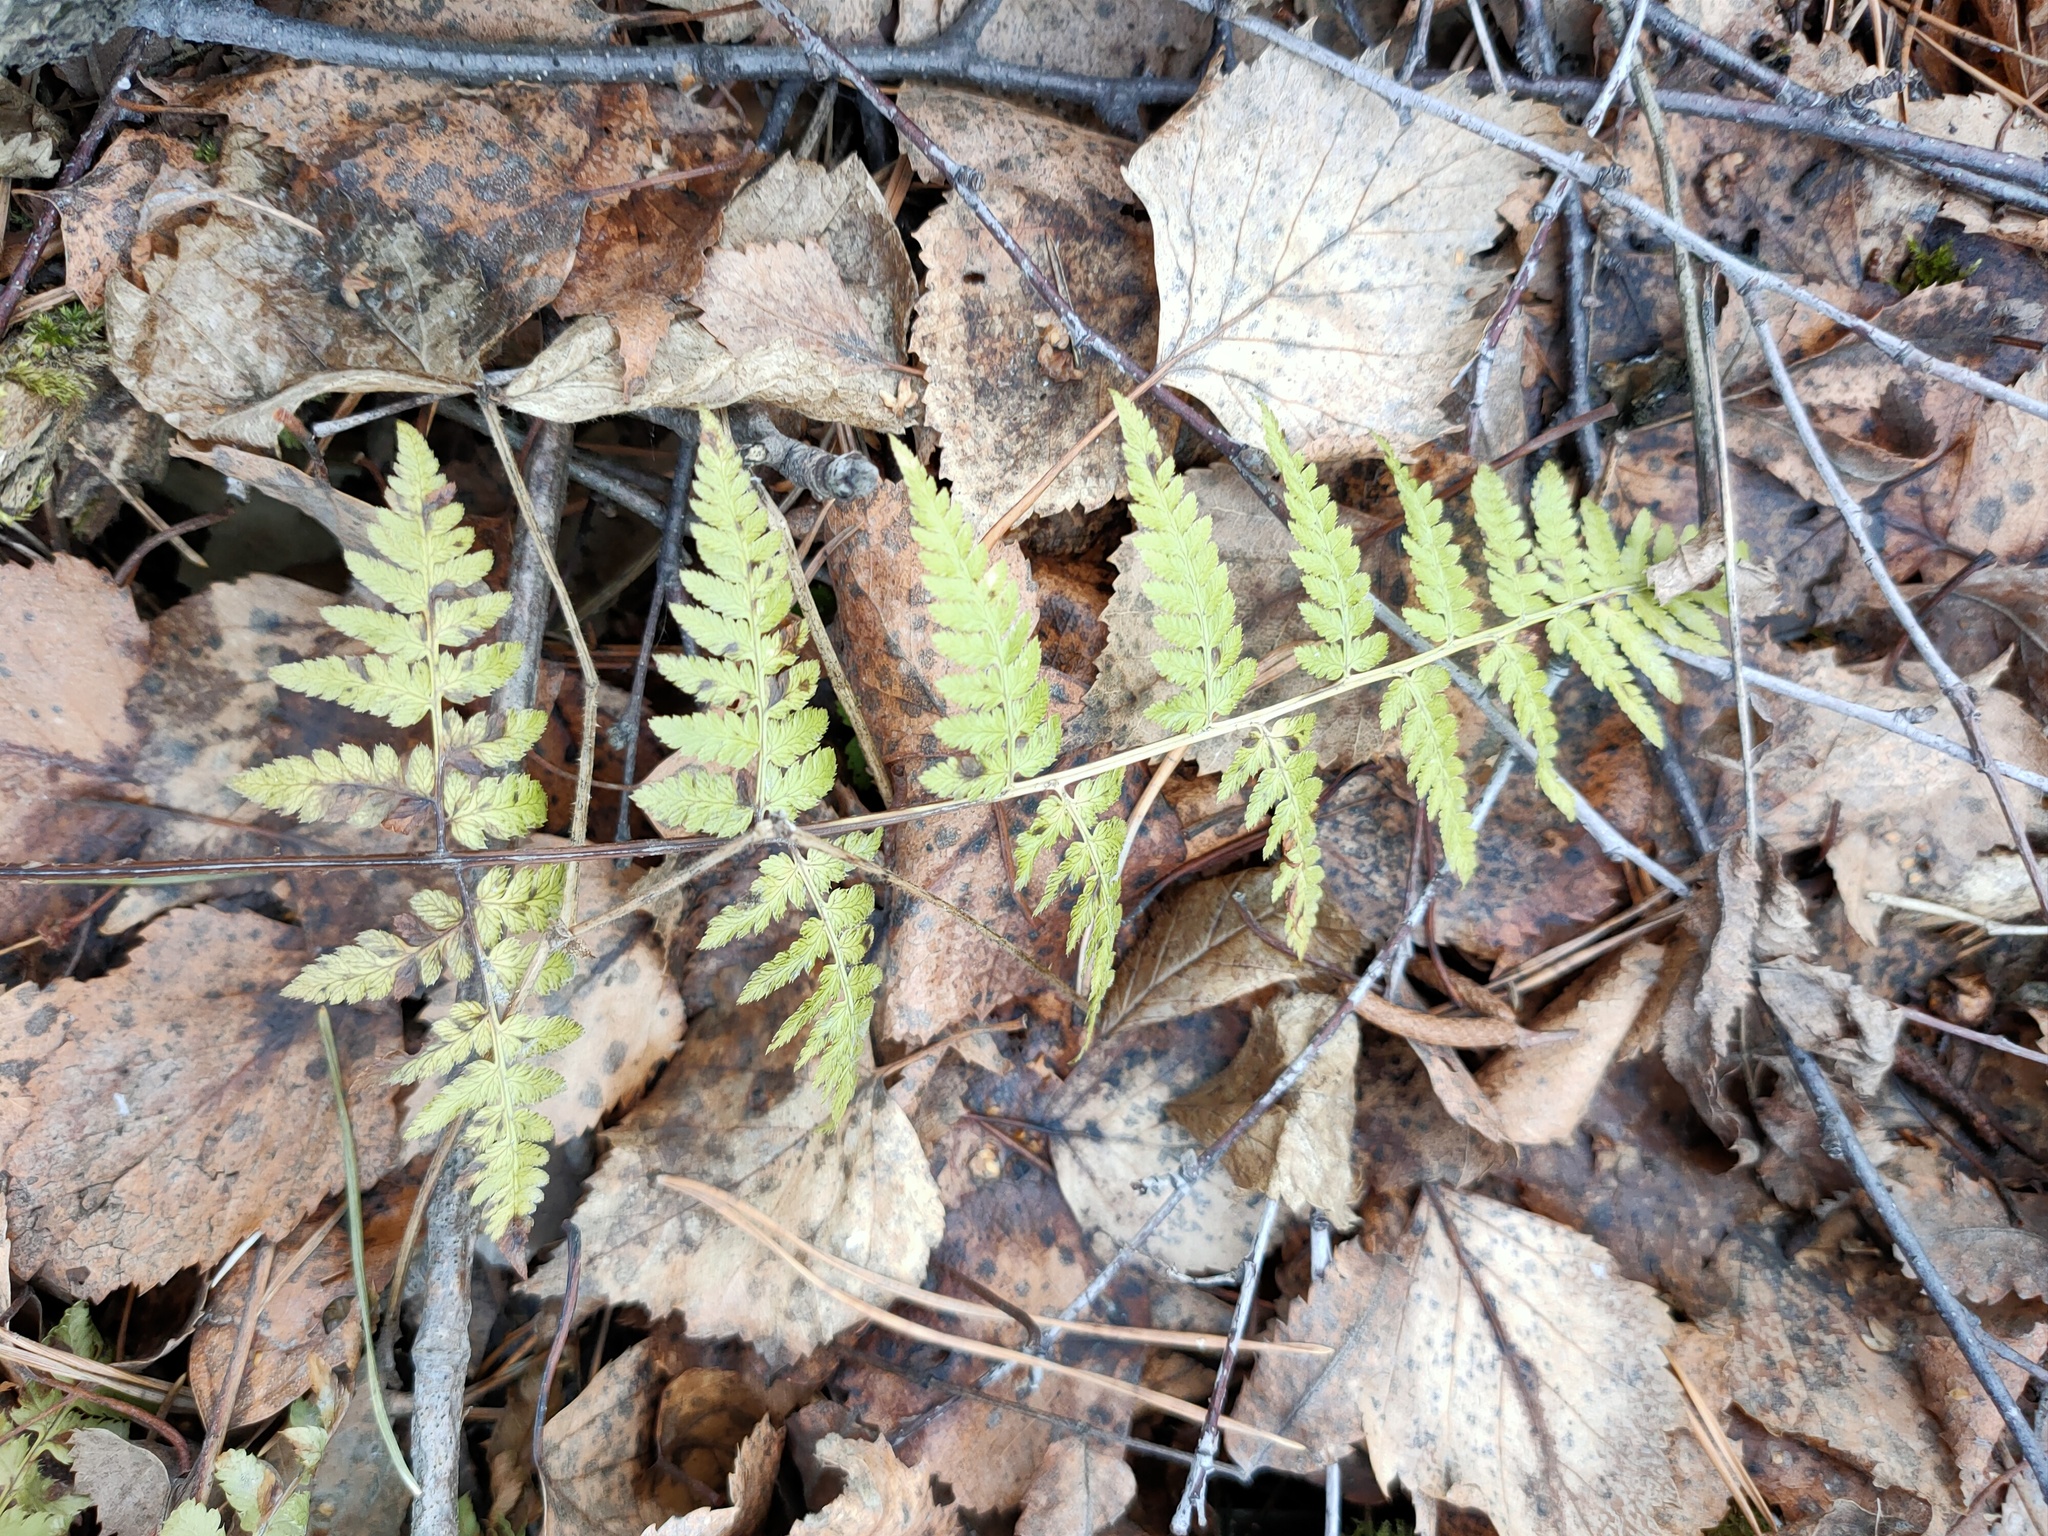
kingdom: Plantae
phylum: Tracheophyta
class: Polypodiopsida
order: Polypodiales
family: Dryopteridaceae
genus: Dryopteris
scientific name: Dryopteris carthusiana
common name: Narrow buckler-fern
